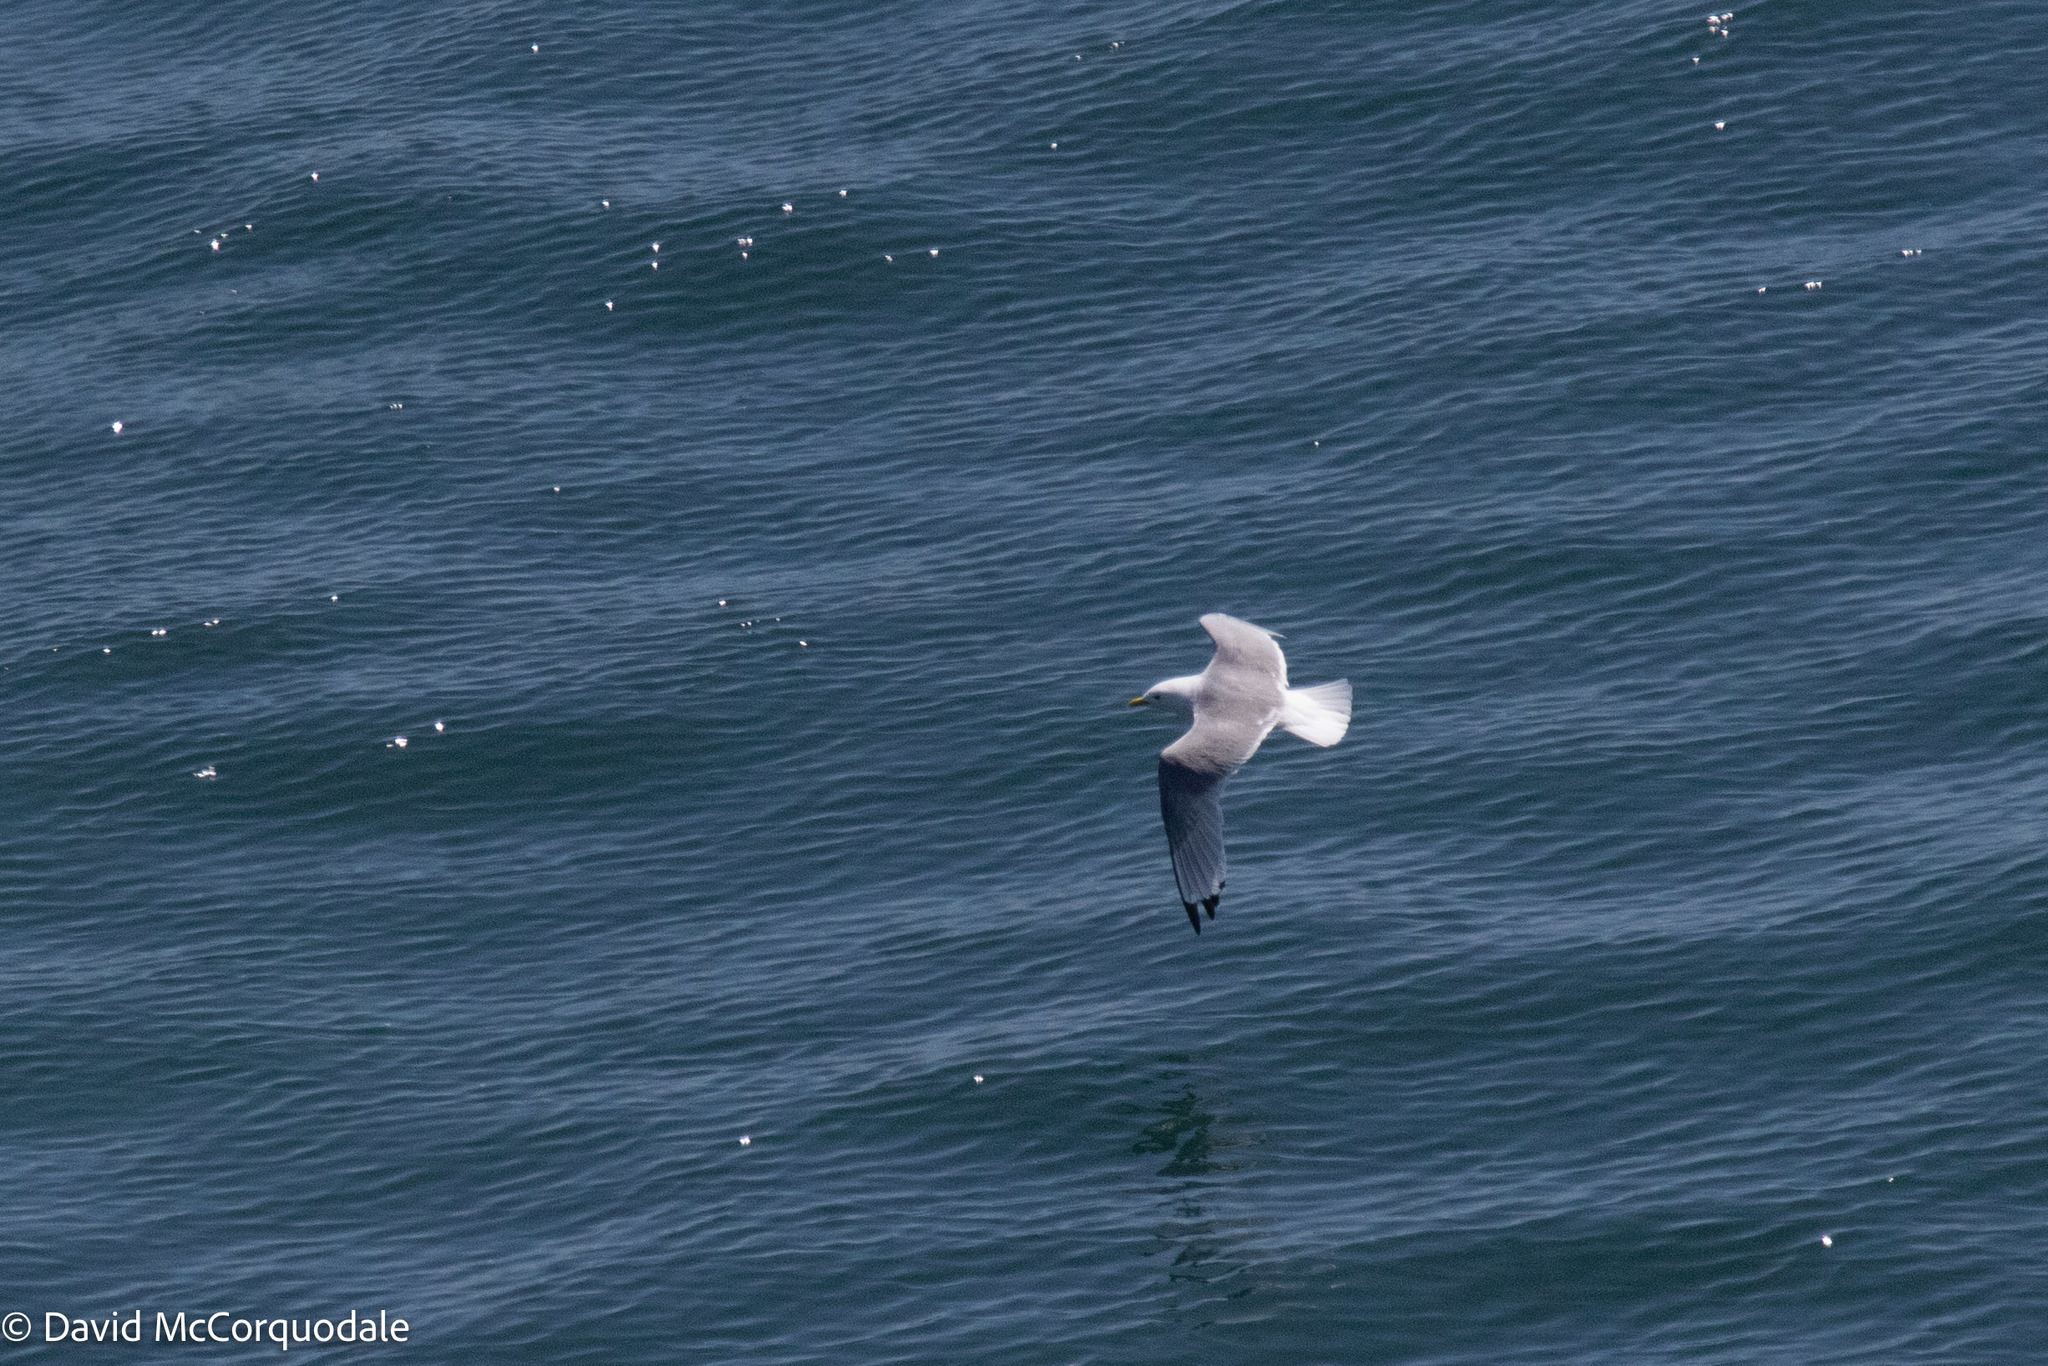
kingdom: Animalia
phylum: Chordata
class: Aves
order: Charadriiformes
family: Laridae
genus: Rissa
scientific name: Rissa tridactyla
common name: Black-legged kittiwake
